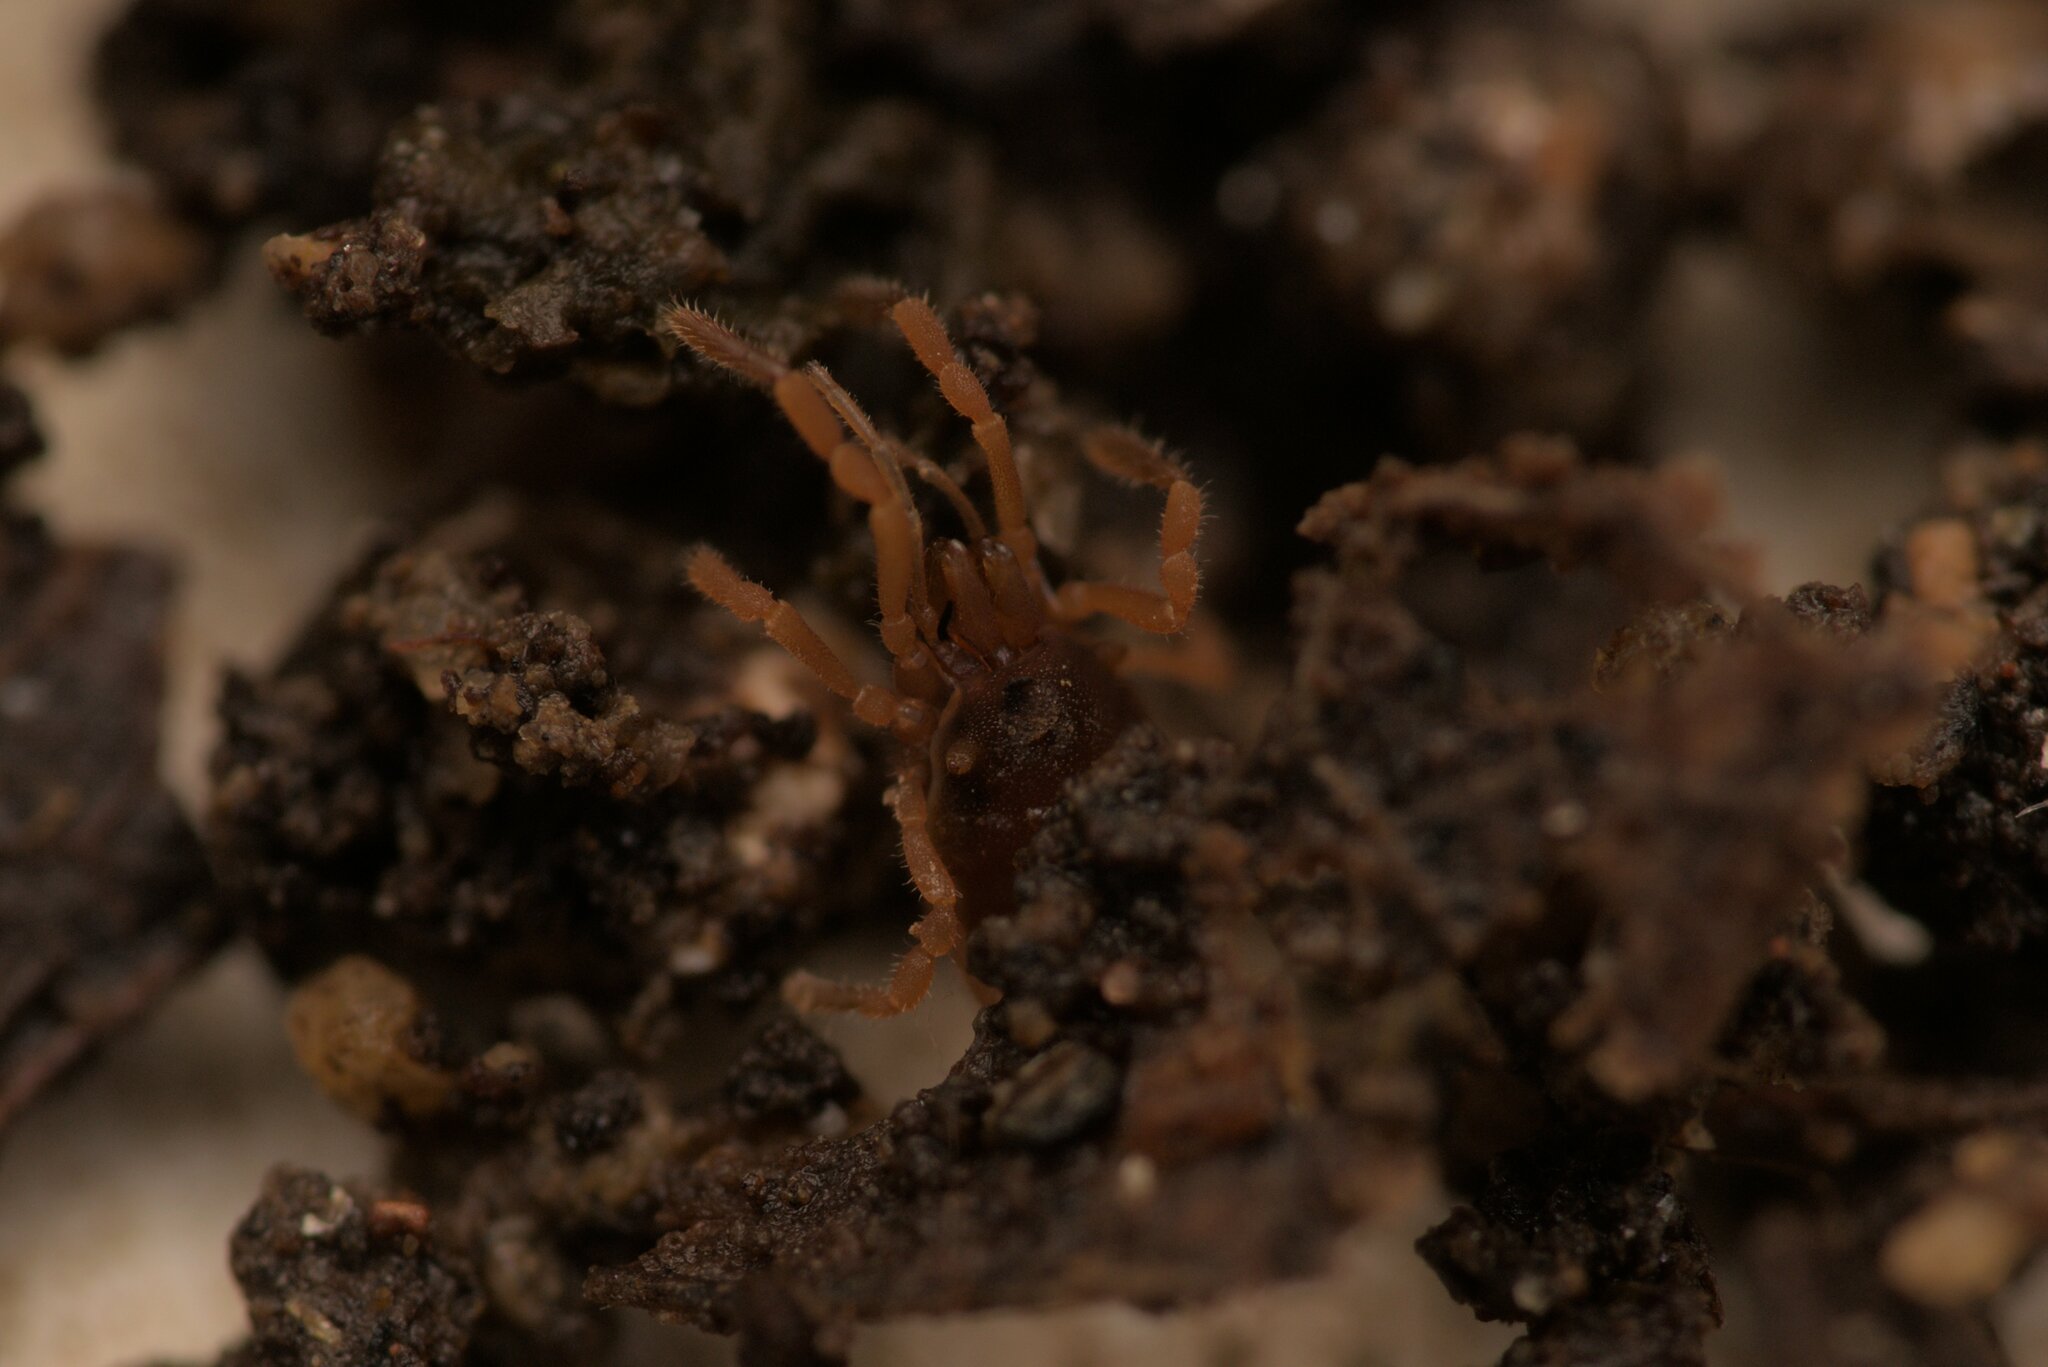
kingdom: Animalia
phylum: Arthropoda
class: Arachnida
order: Opiliones
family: Sironidae
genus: Siro
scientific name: Siro rubens
